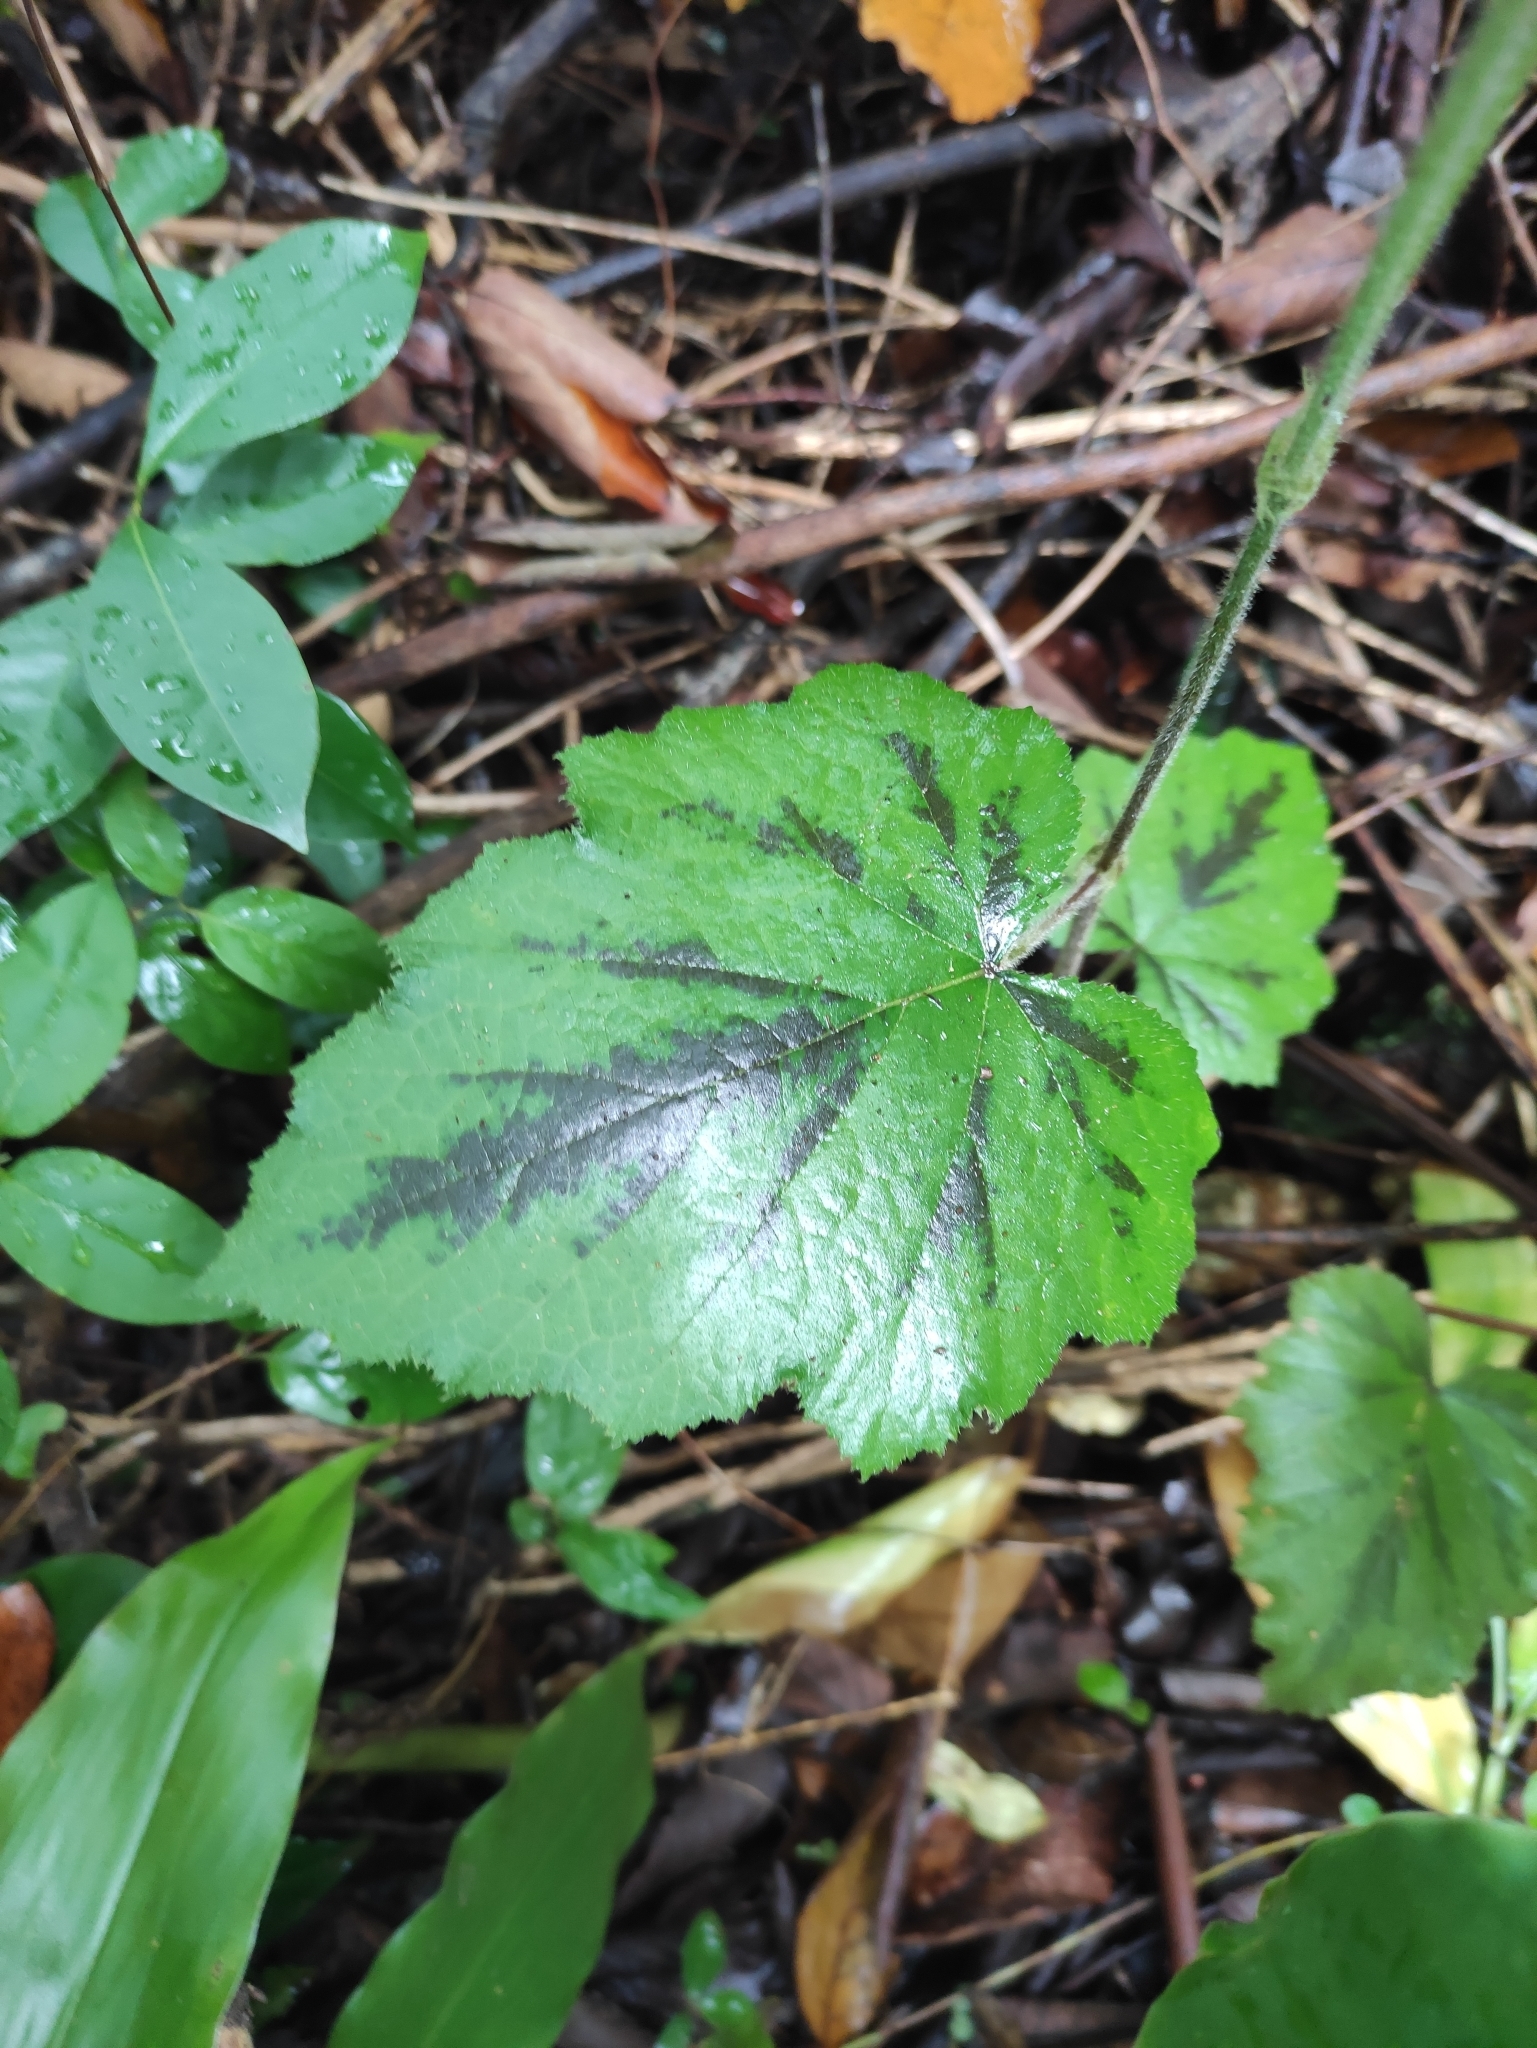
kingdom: Plantae
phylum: Tracheophyta
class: Magnoliopsida
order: Rosales
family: Rosaceae
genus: Rubus
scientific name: Rubus alceifolius
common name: Giant bramble
